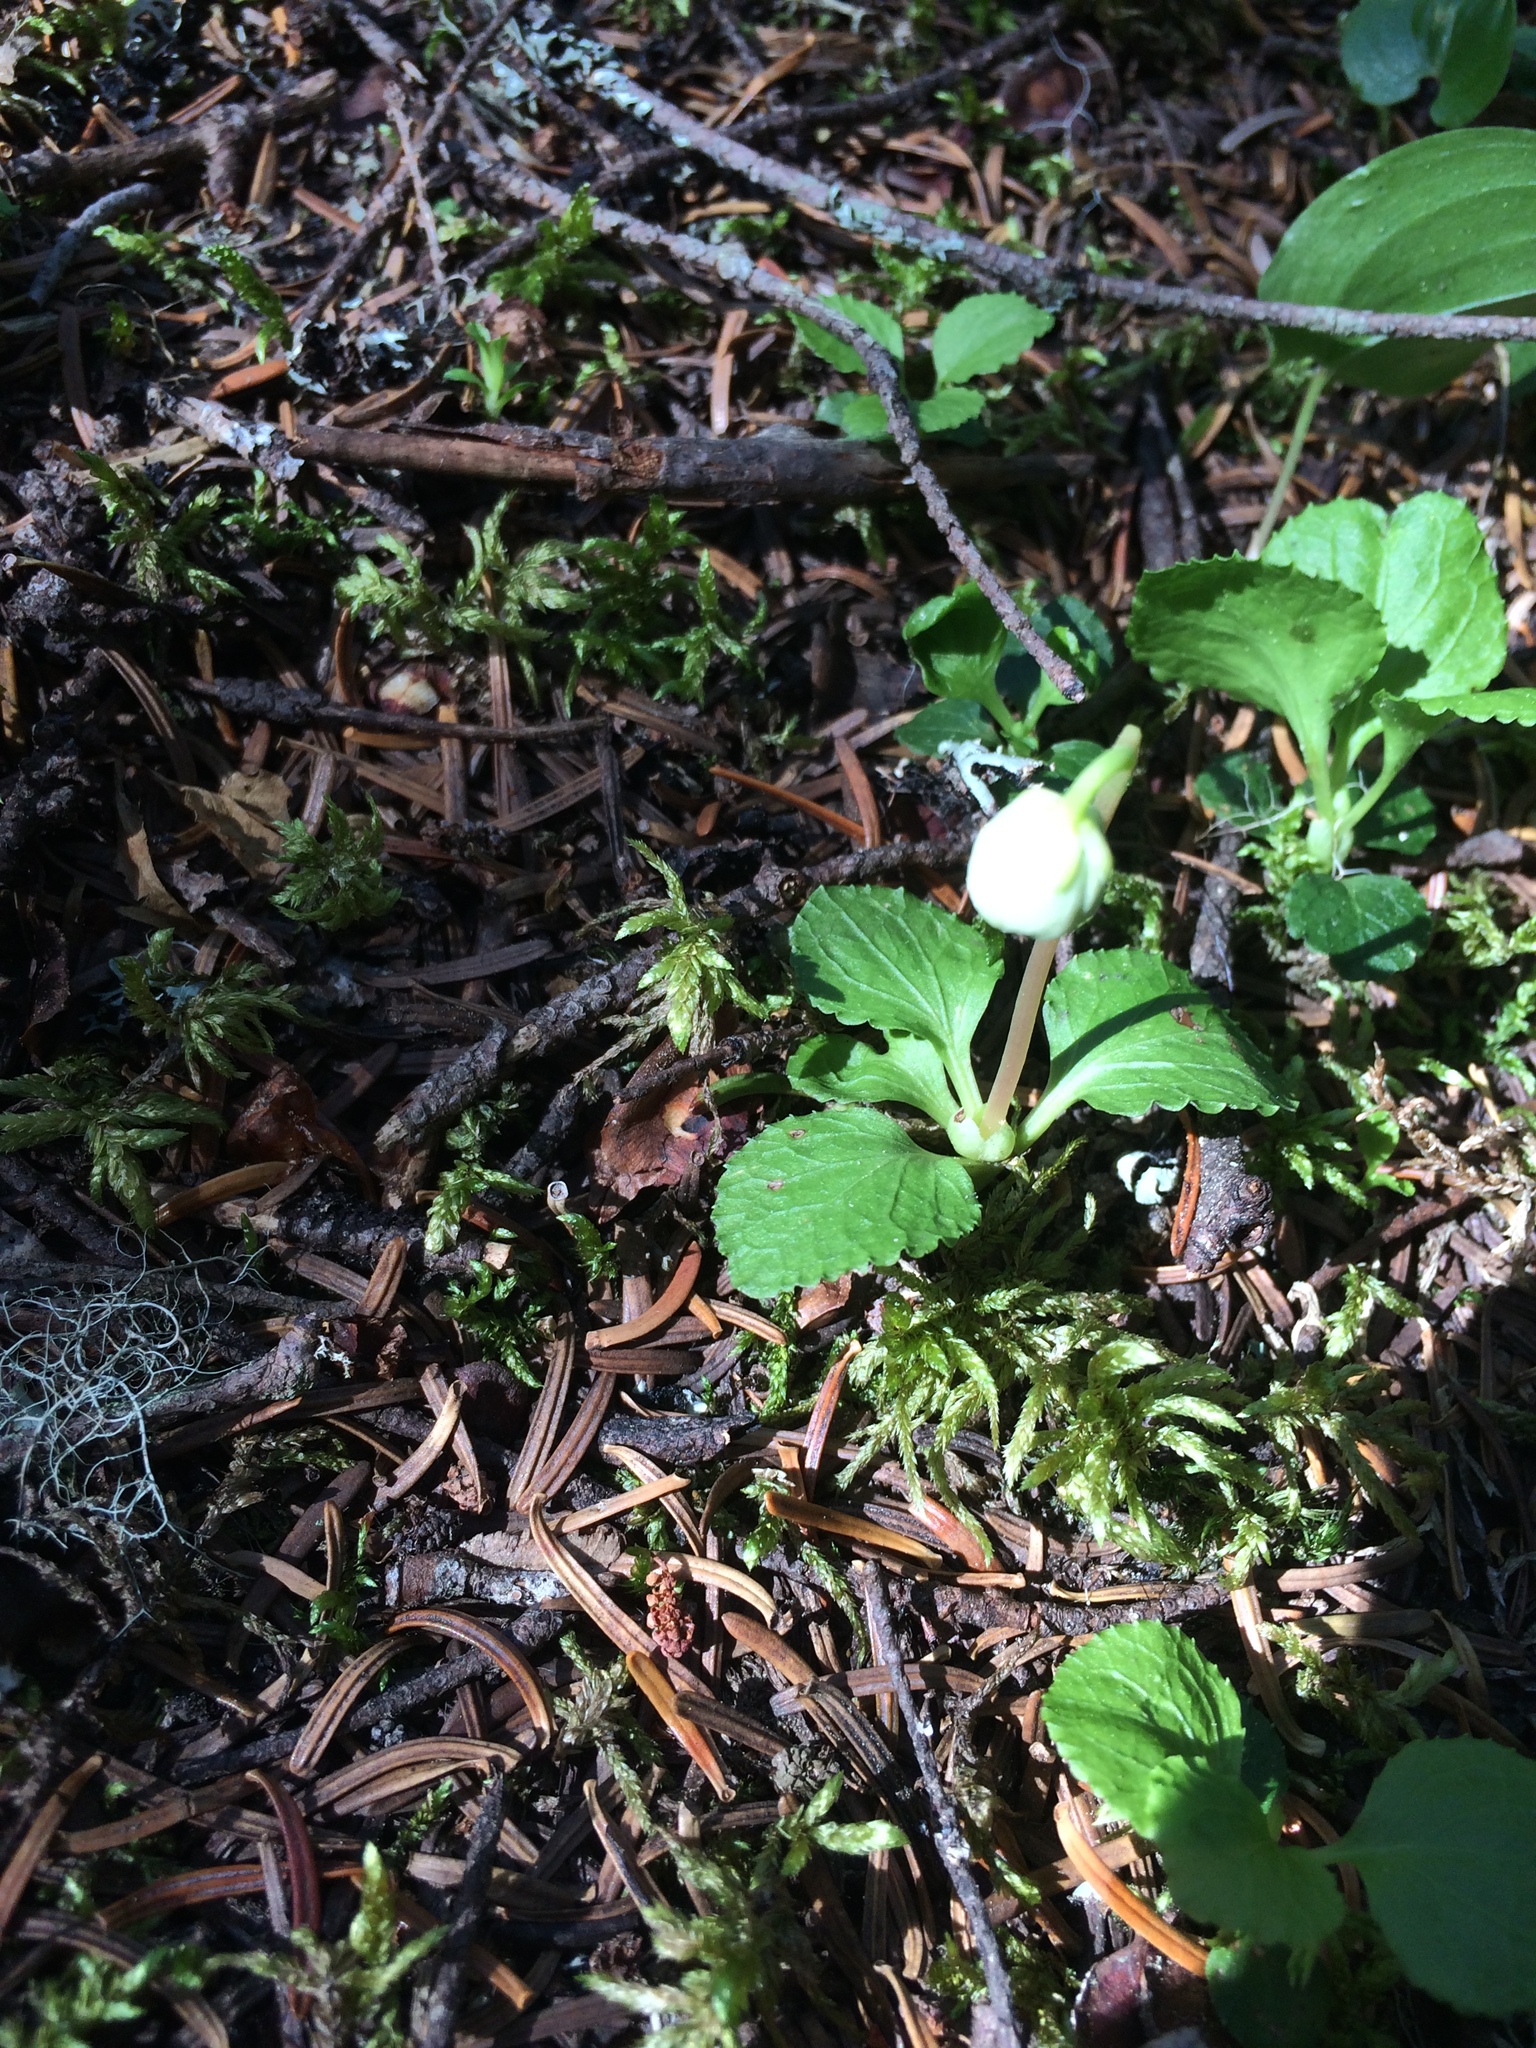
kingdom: Plantae
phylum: Tracheophyta
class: Magnoliopsida
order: Ericales
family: Ericaceae
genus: Moneses
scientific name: Moneses uniflora
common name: One-flowered wintergreen
